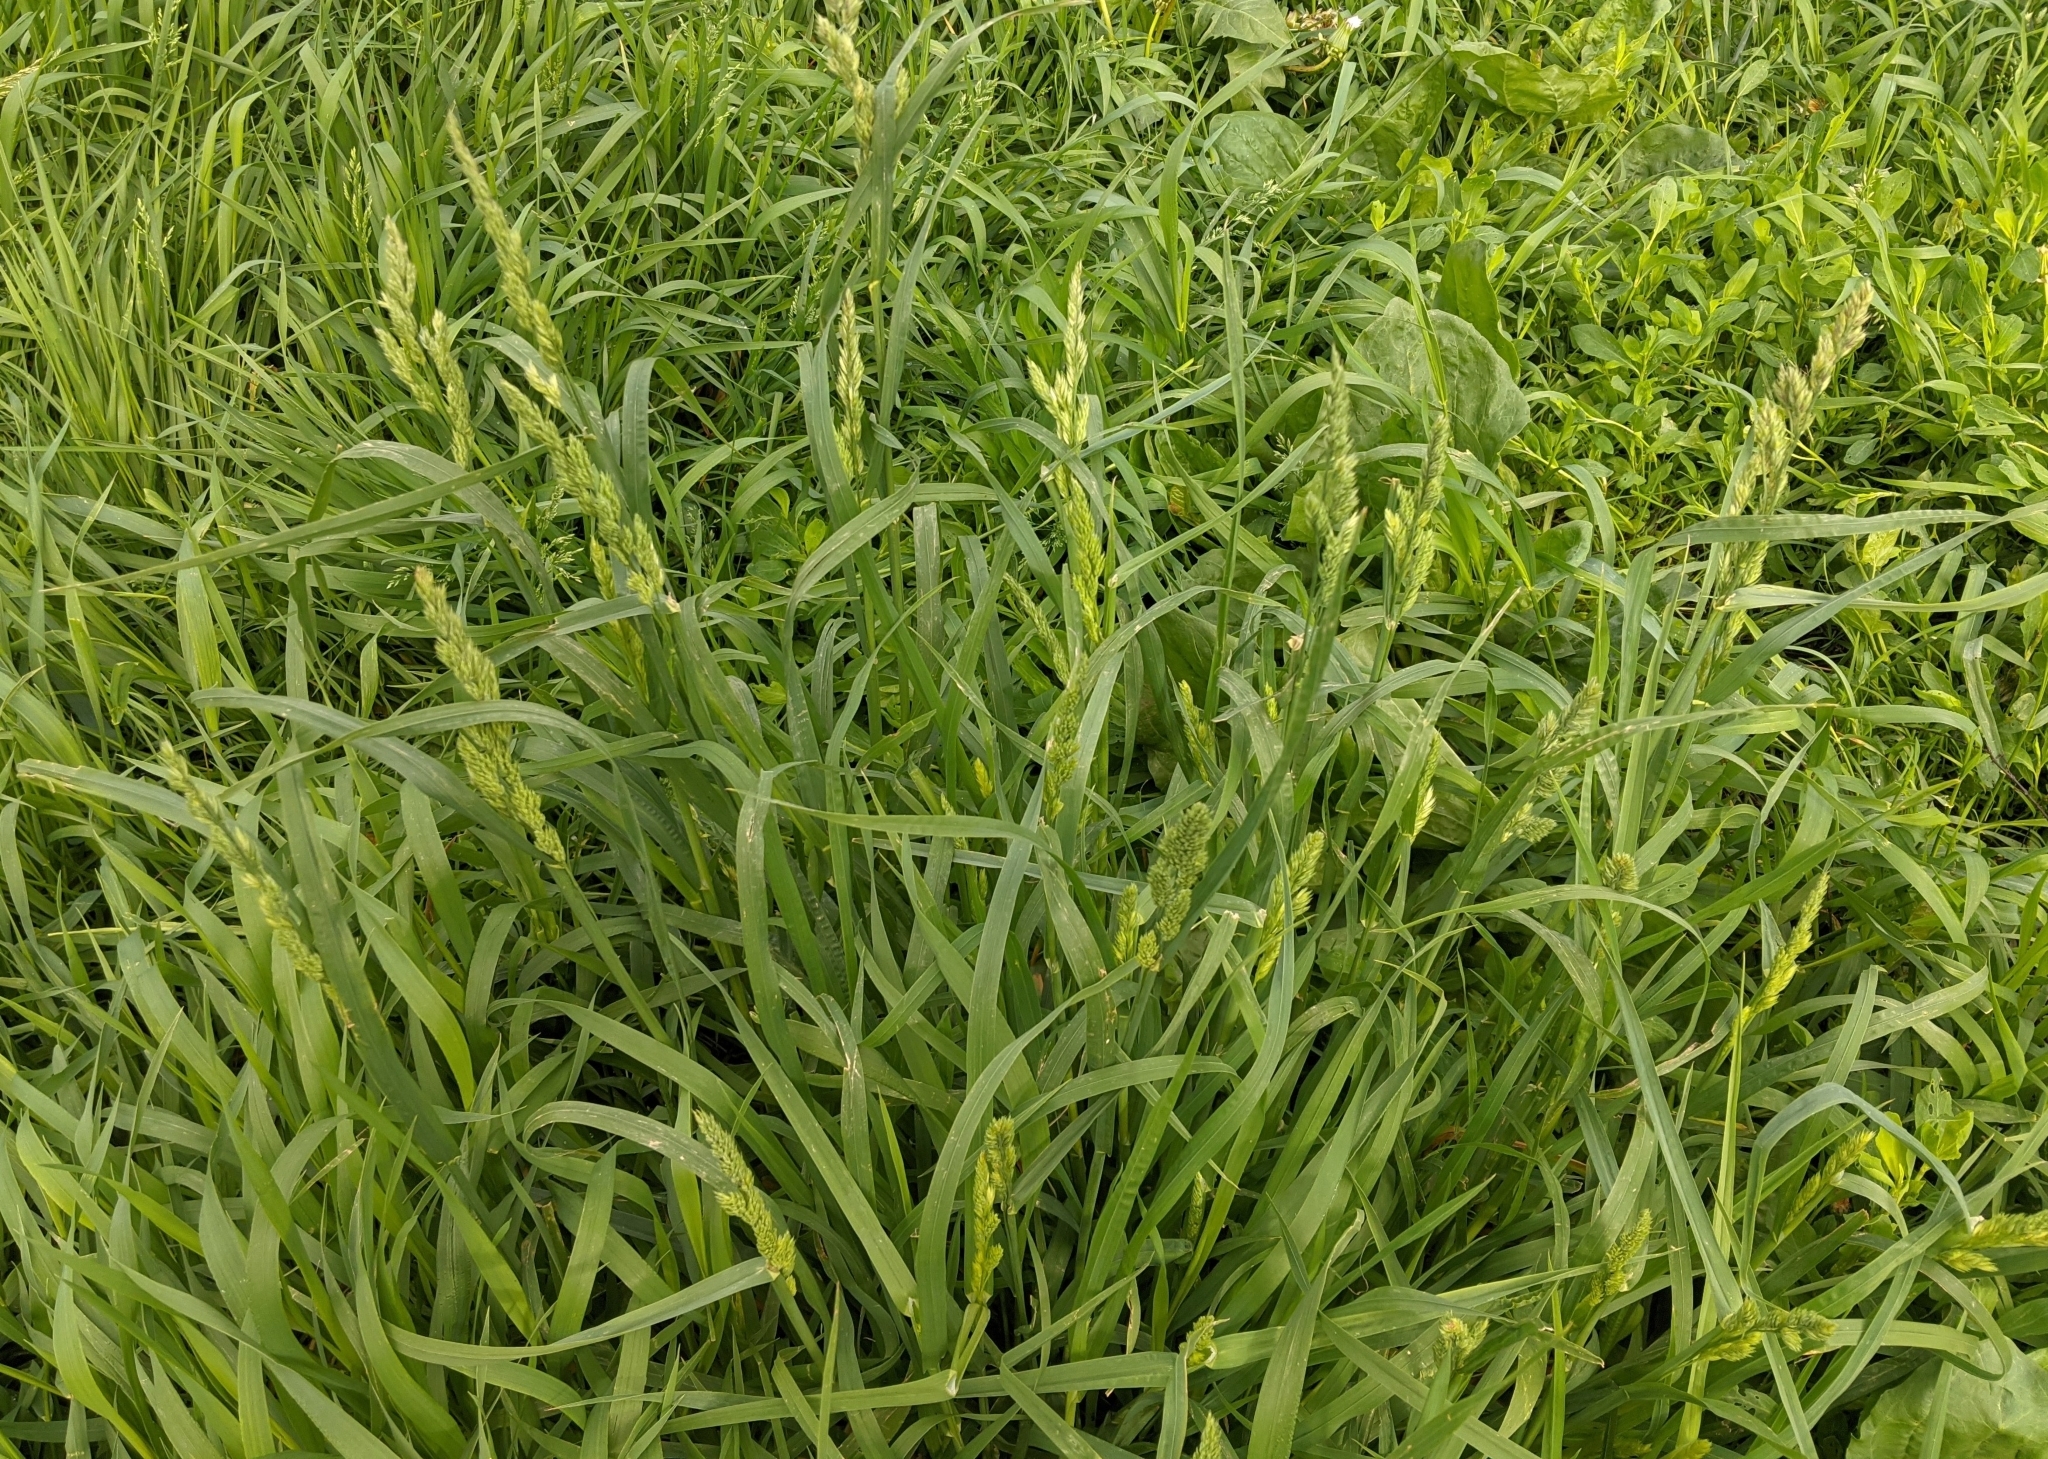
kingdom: Plantae
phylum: Tracheophyta
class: Liliopsida
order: Poales
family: Poaceae
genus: Dactylis
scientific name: Dactylis glomerata
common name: Orchardgrass
